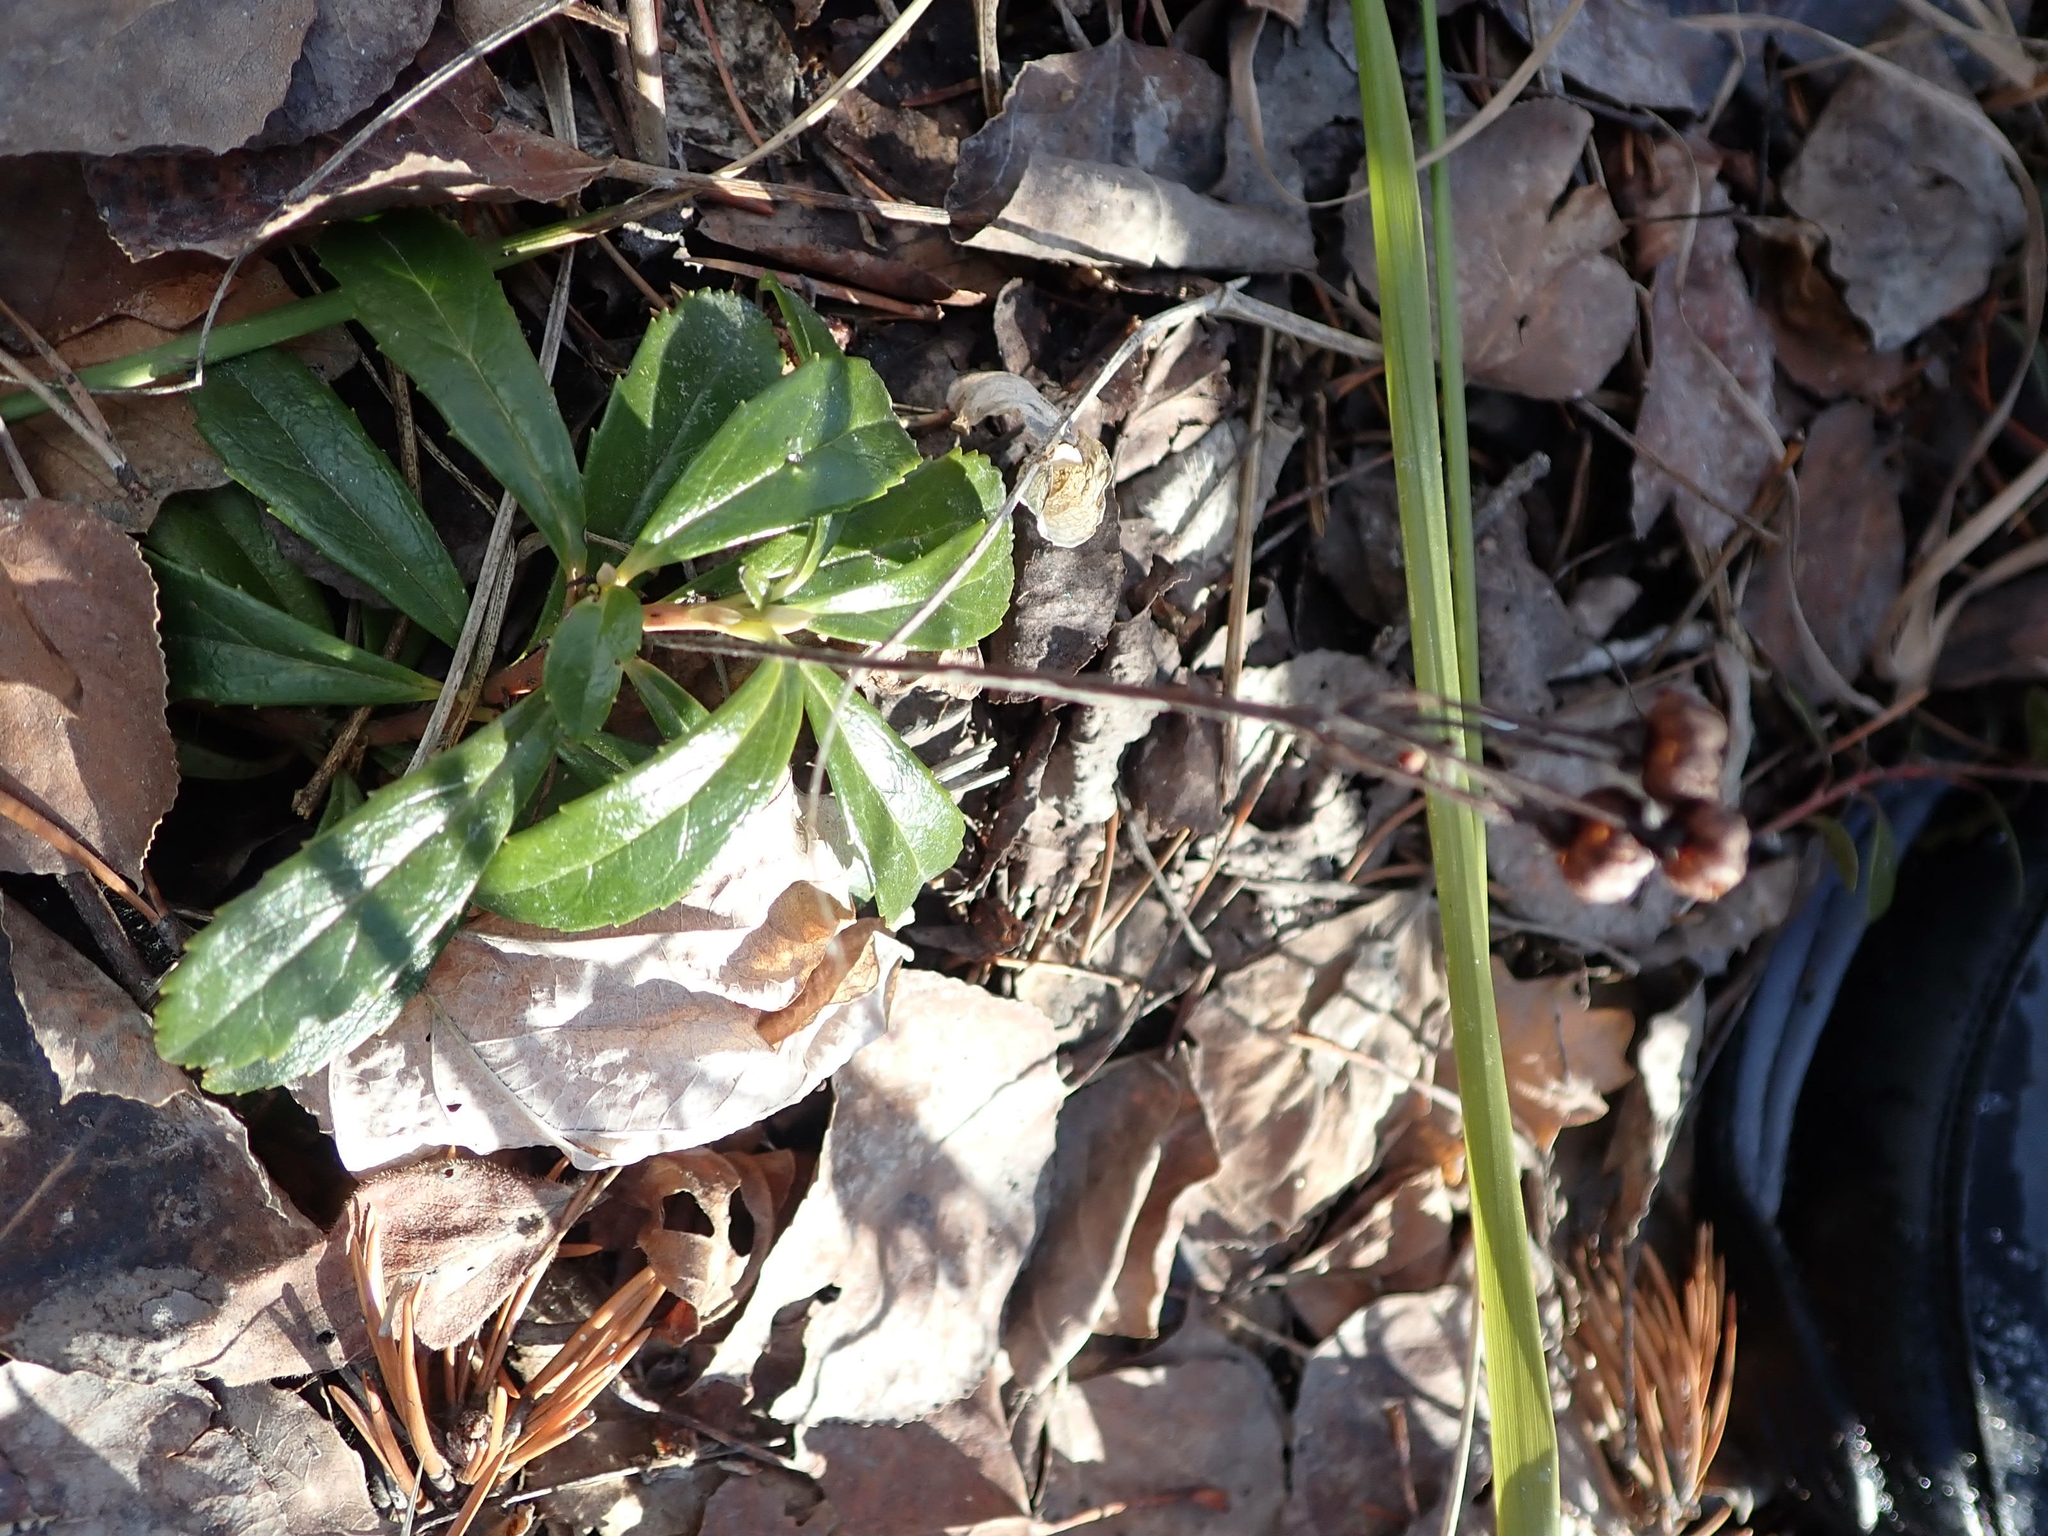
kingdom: Plantae
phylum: Tracheophyta
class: Magnoliopsida
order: Ericales
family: Ericaceae
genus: Chimaphila
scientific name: Chimaphila umbellata
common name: Pipsissewa
